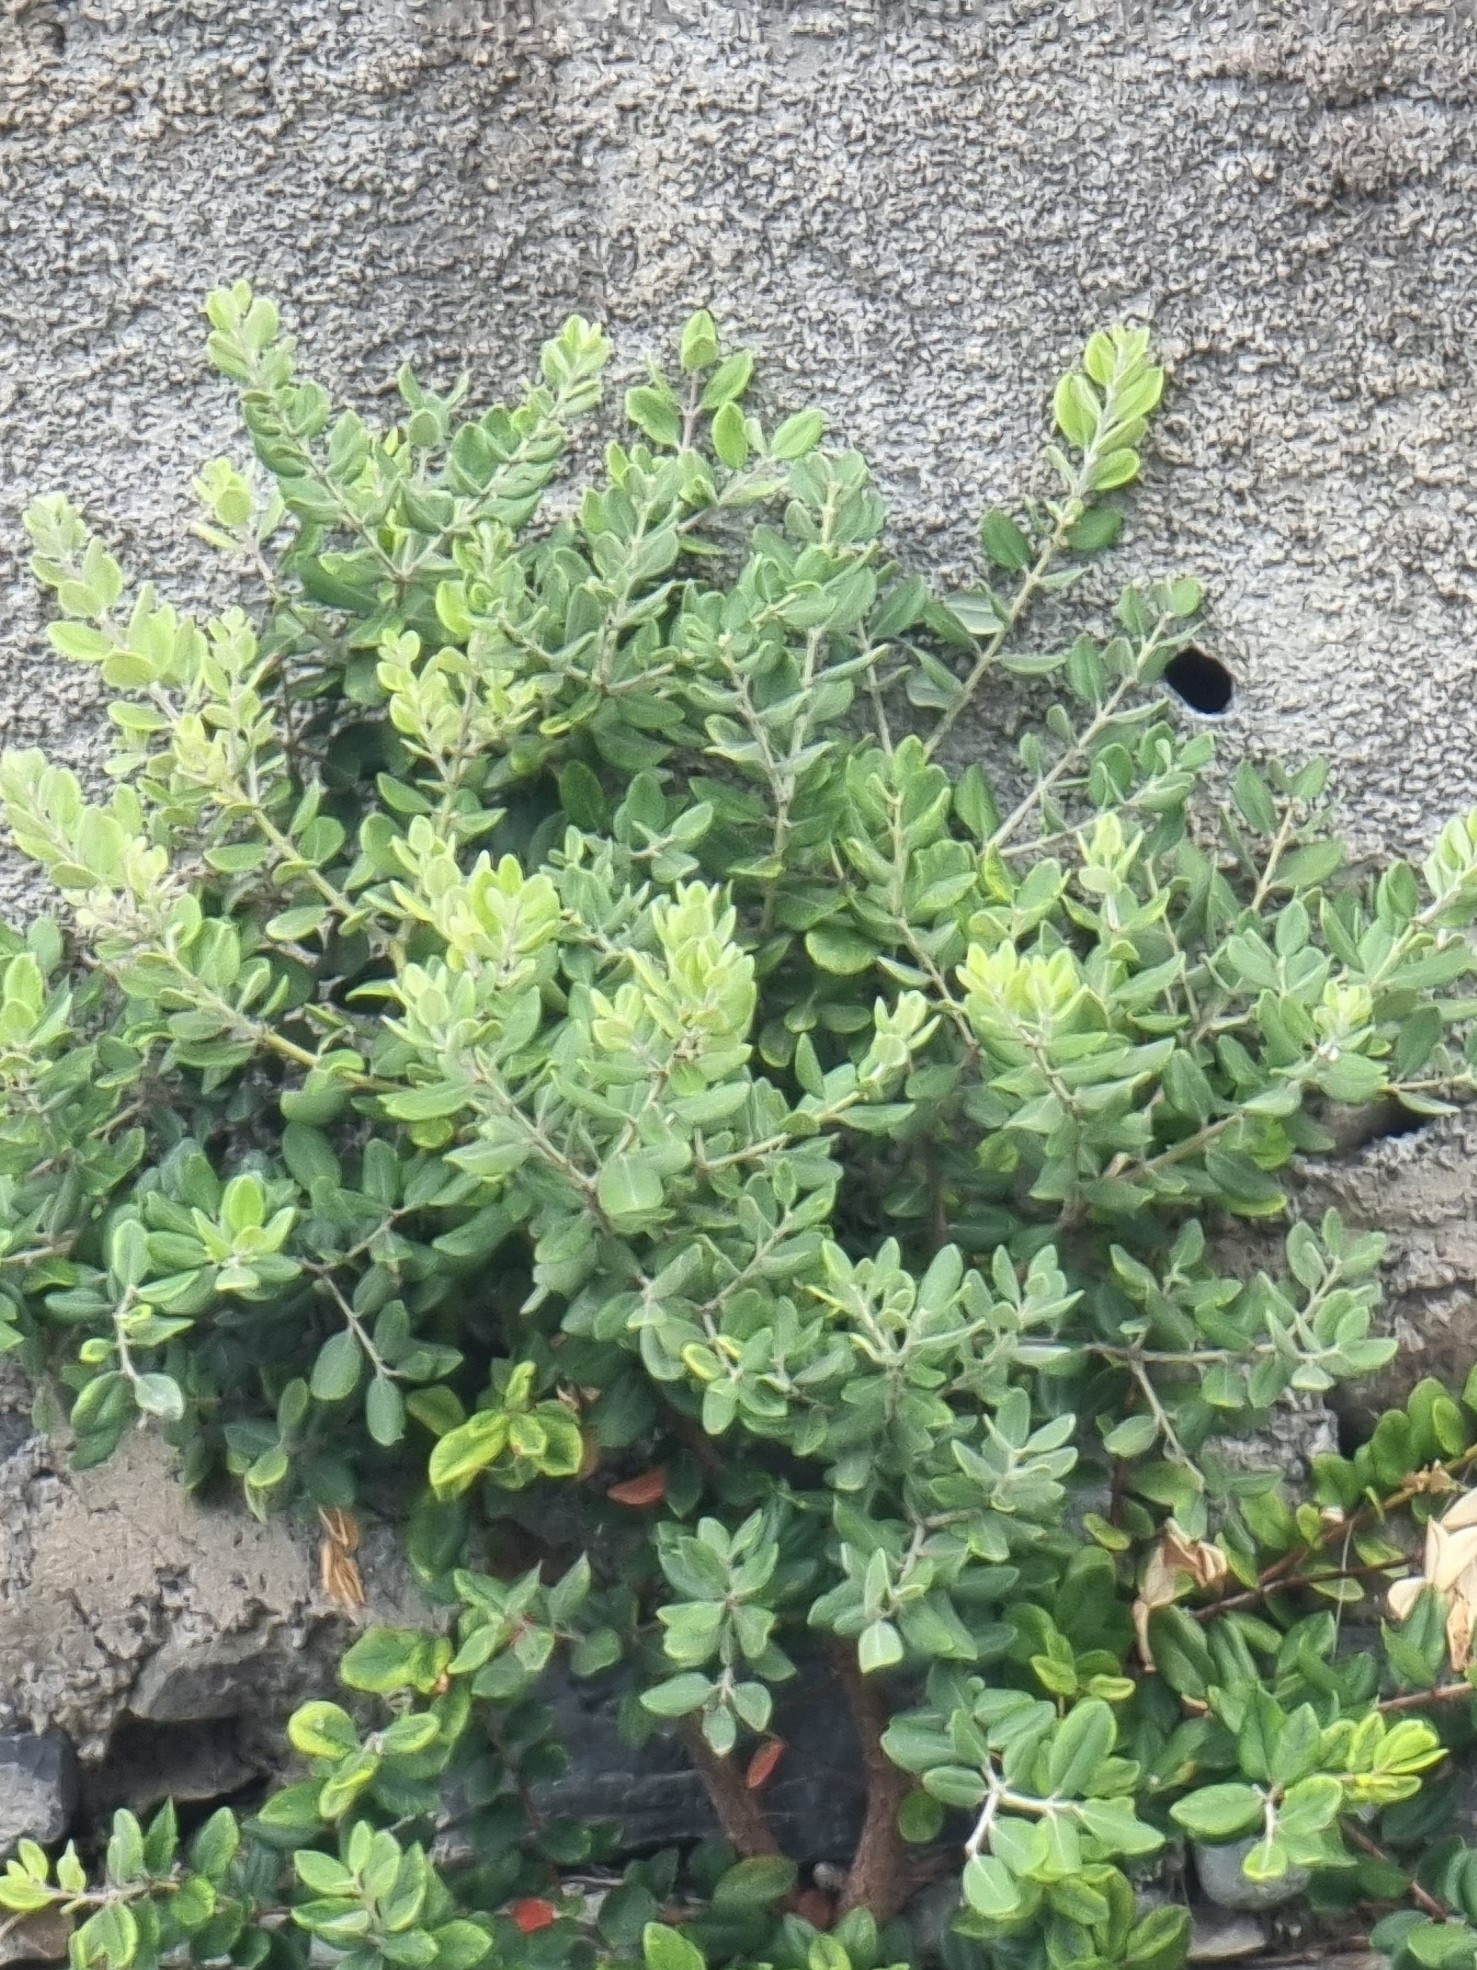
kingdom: Plantae
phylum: Tracheophyta
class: Magnoliopsida
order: Myrtales
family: Myrtaceae
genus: Metrosideros
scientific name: Metrosideros excelsa
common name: New zealand christmastree
